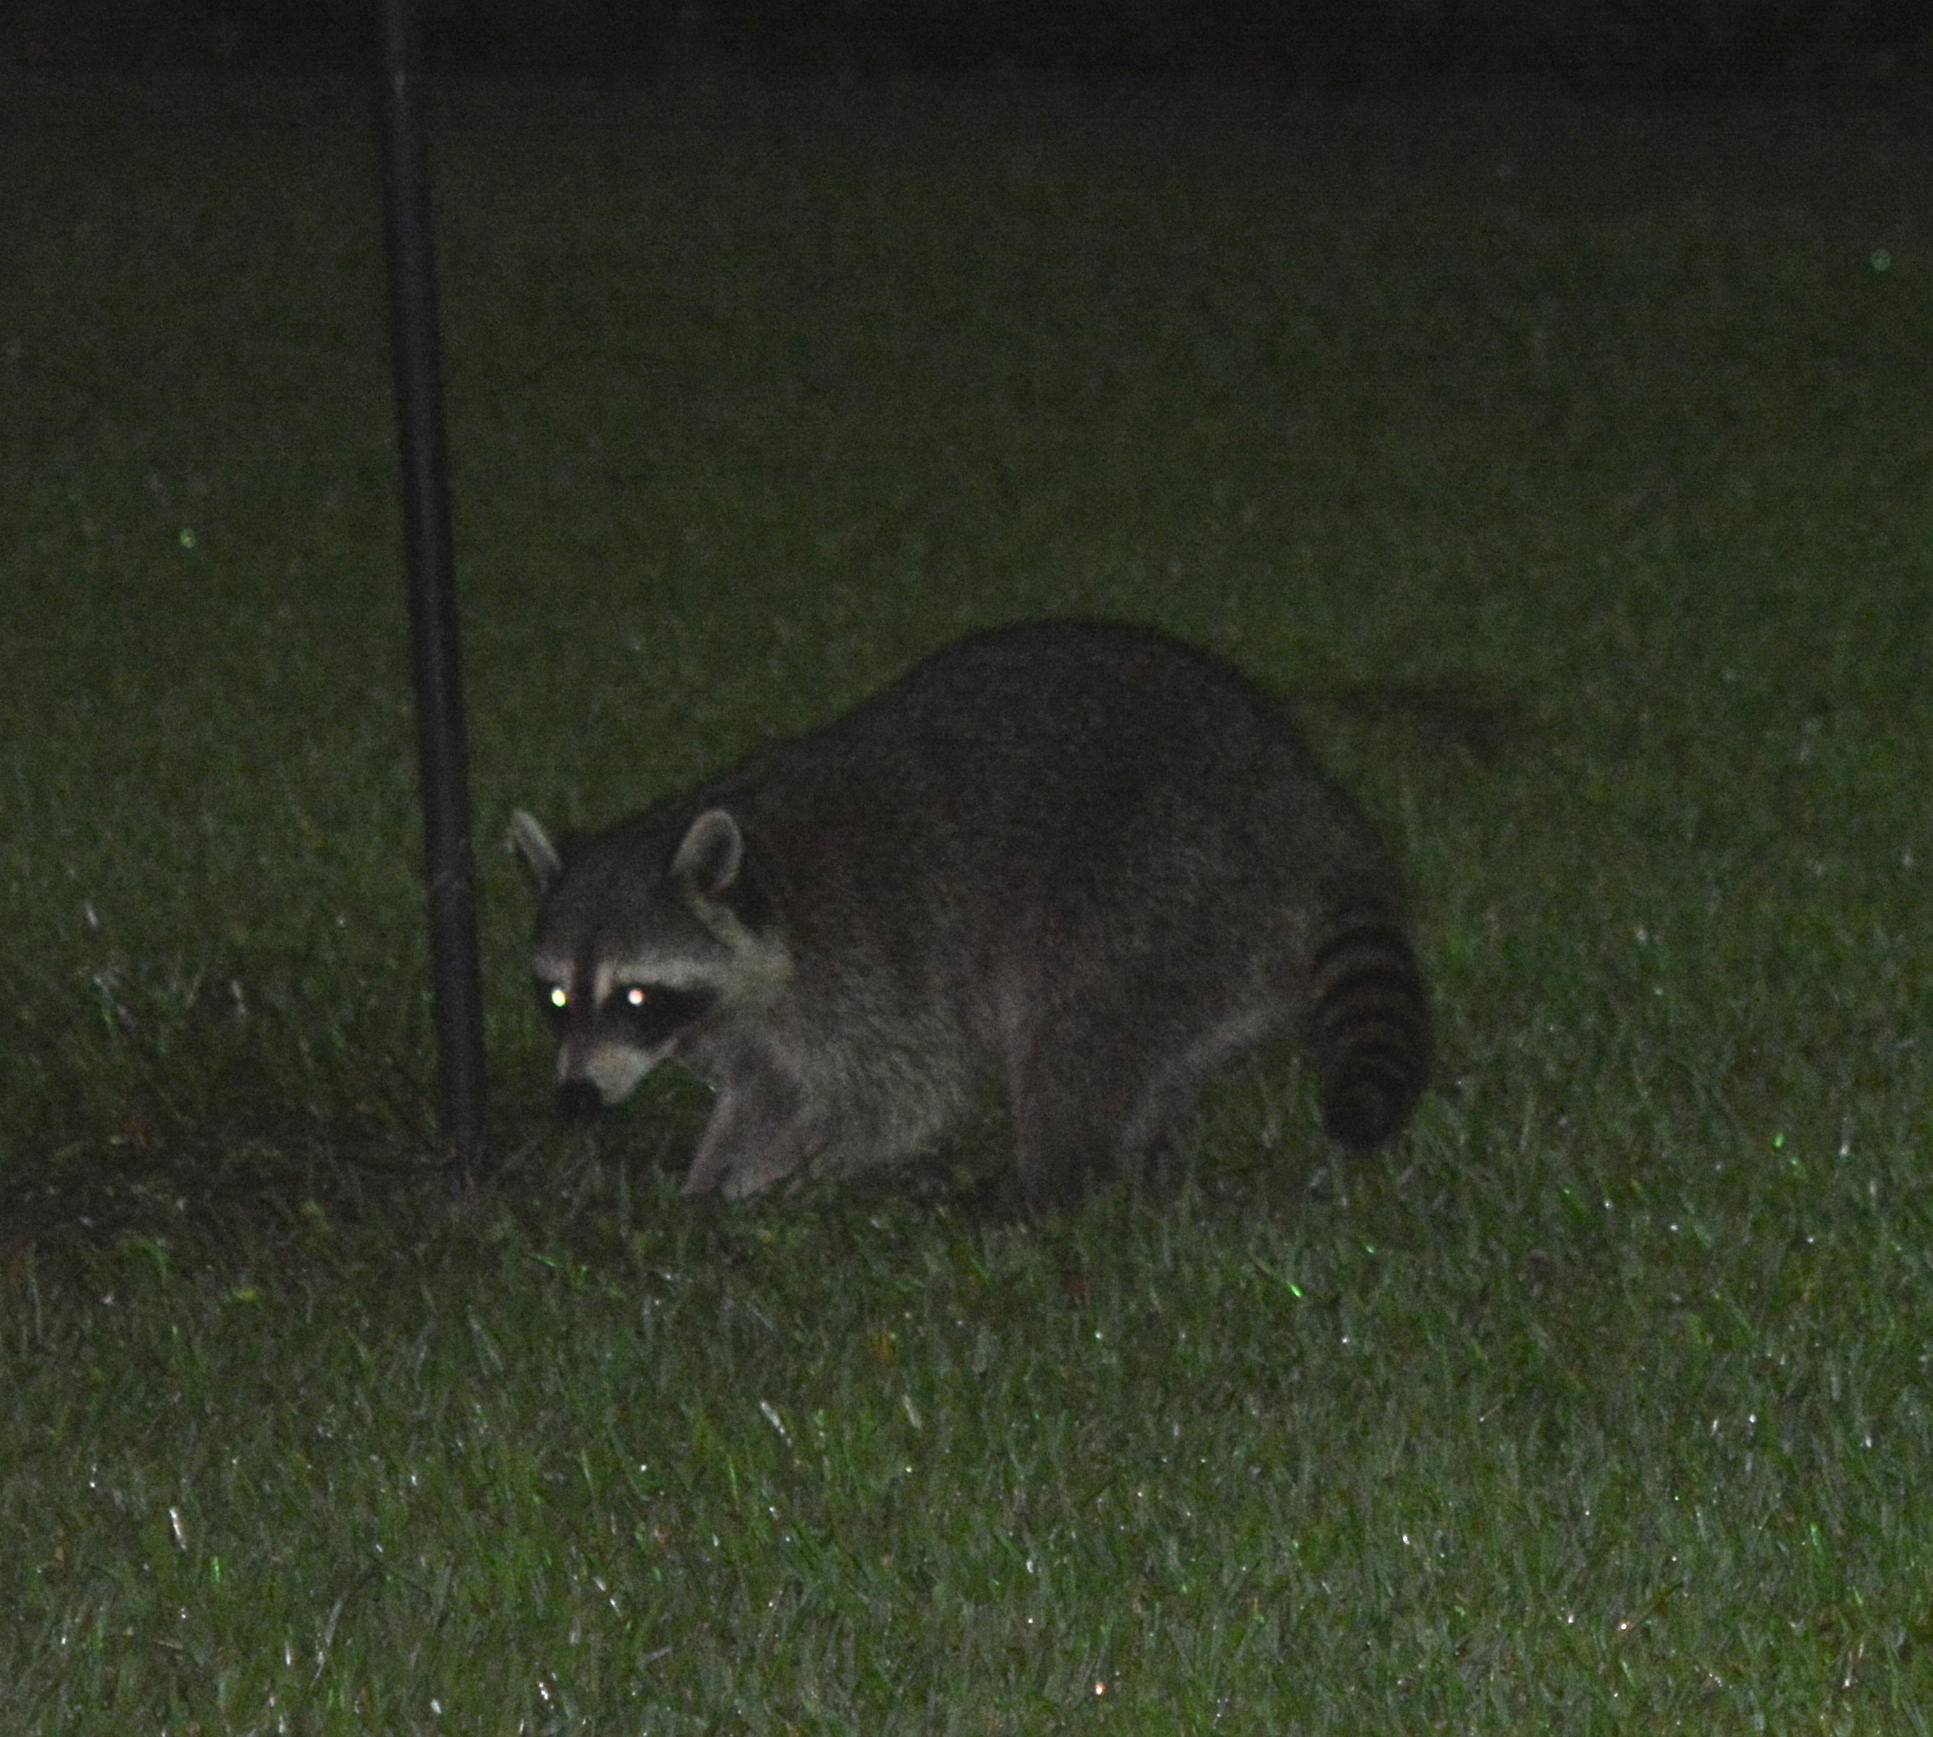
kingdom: Animalia
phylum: Chordata
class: Mammalia
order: Carnivora
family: Procyonidae
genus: Procyon
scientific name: Procyon lotor
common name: Raccoon
